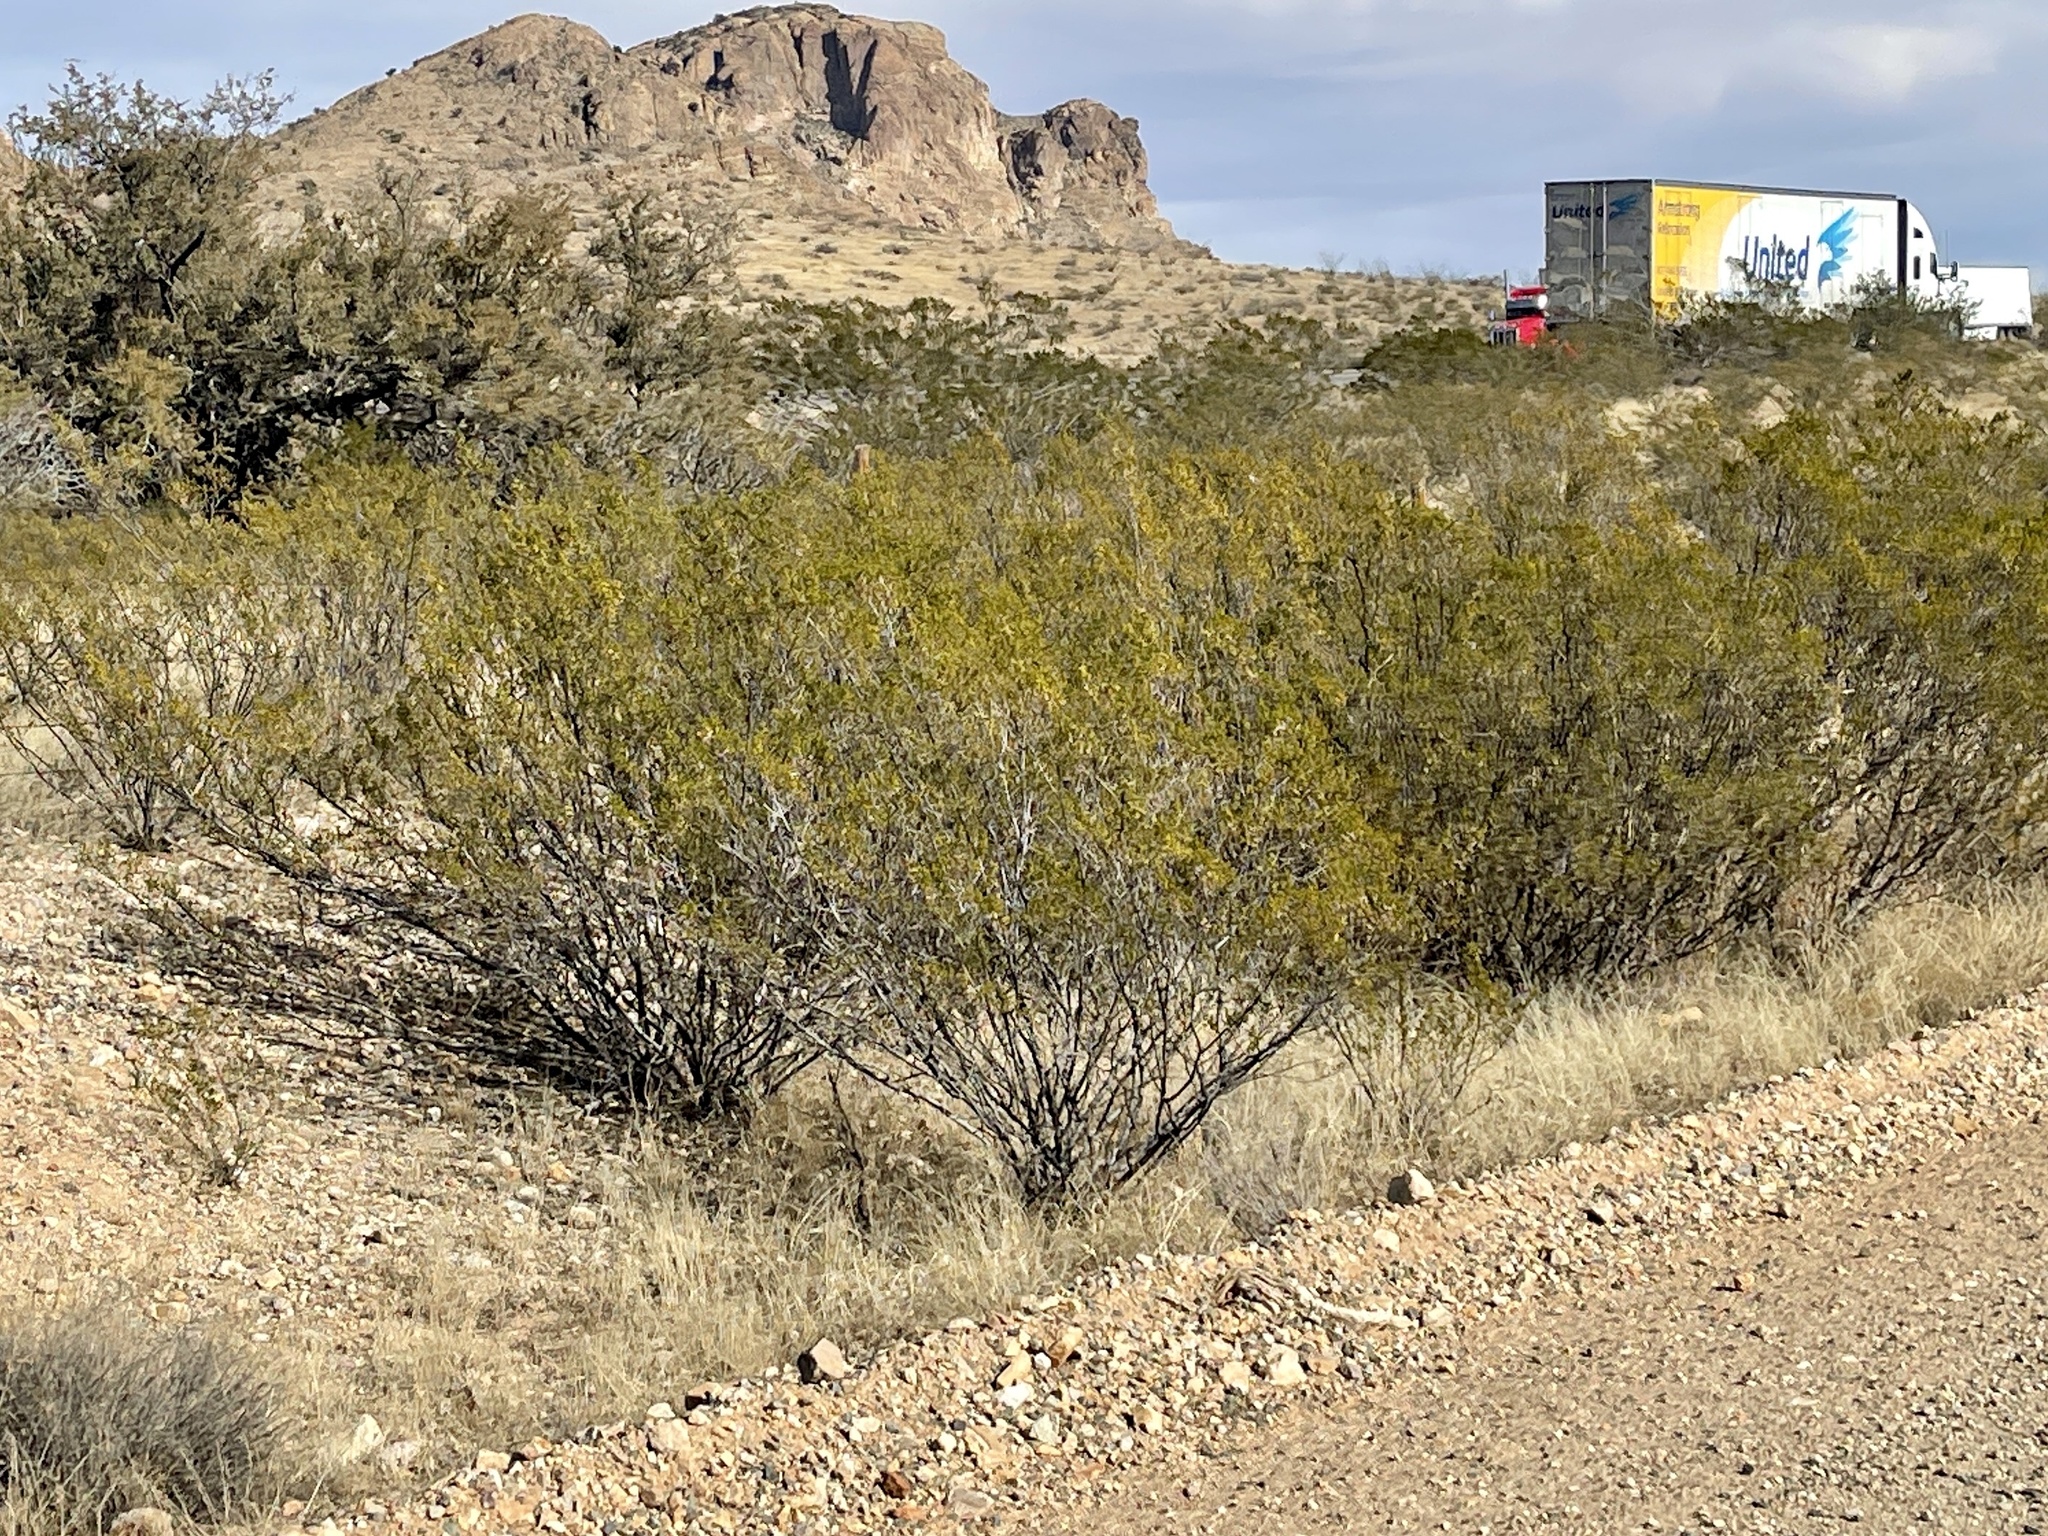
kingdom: Plantae
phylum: Tracheophyta
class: Magnoliopsida
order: Zygophyllales
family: Zygophyllaceae
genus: Larrea
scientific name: Larrea tridentata
